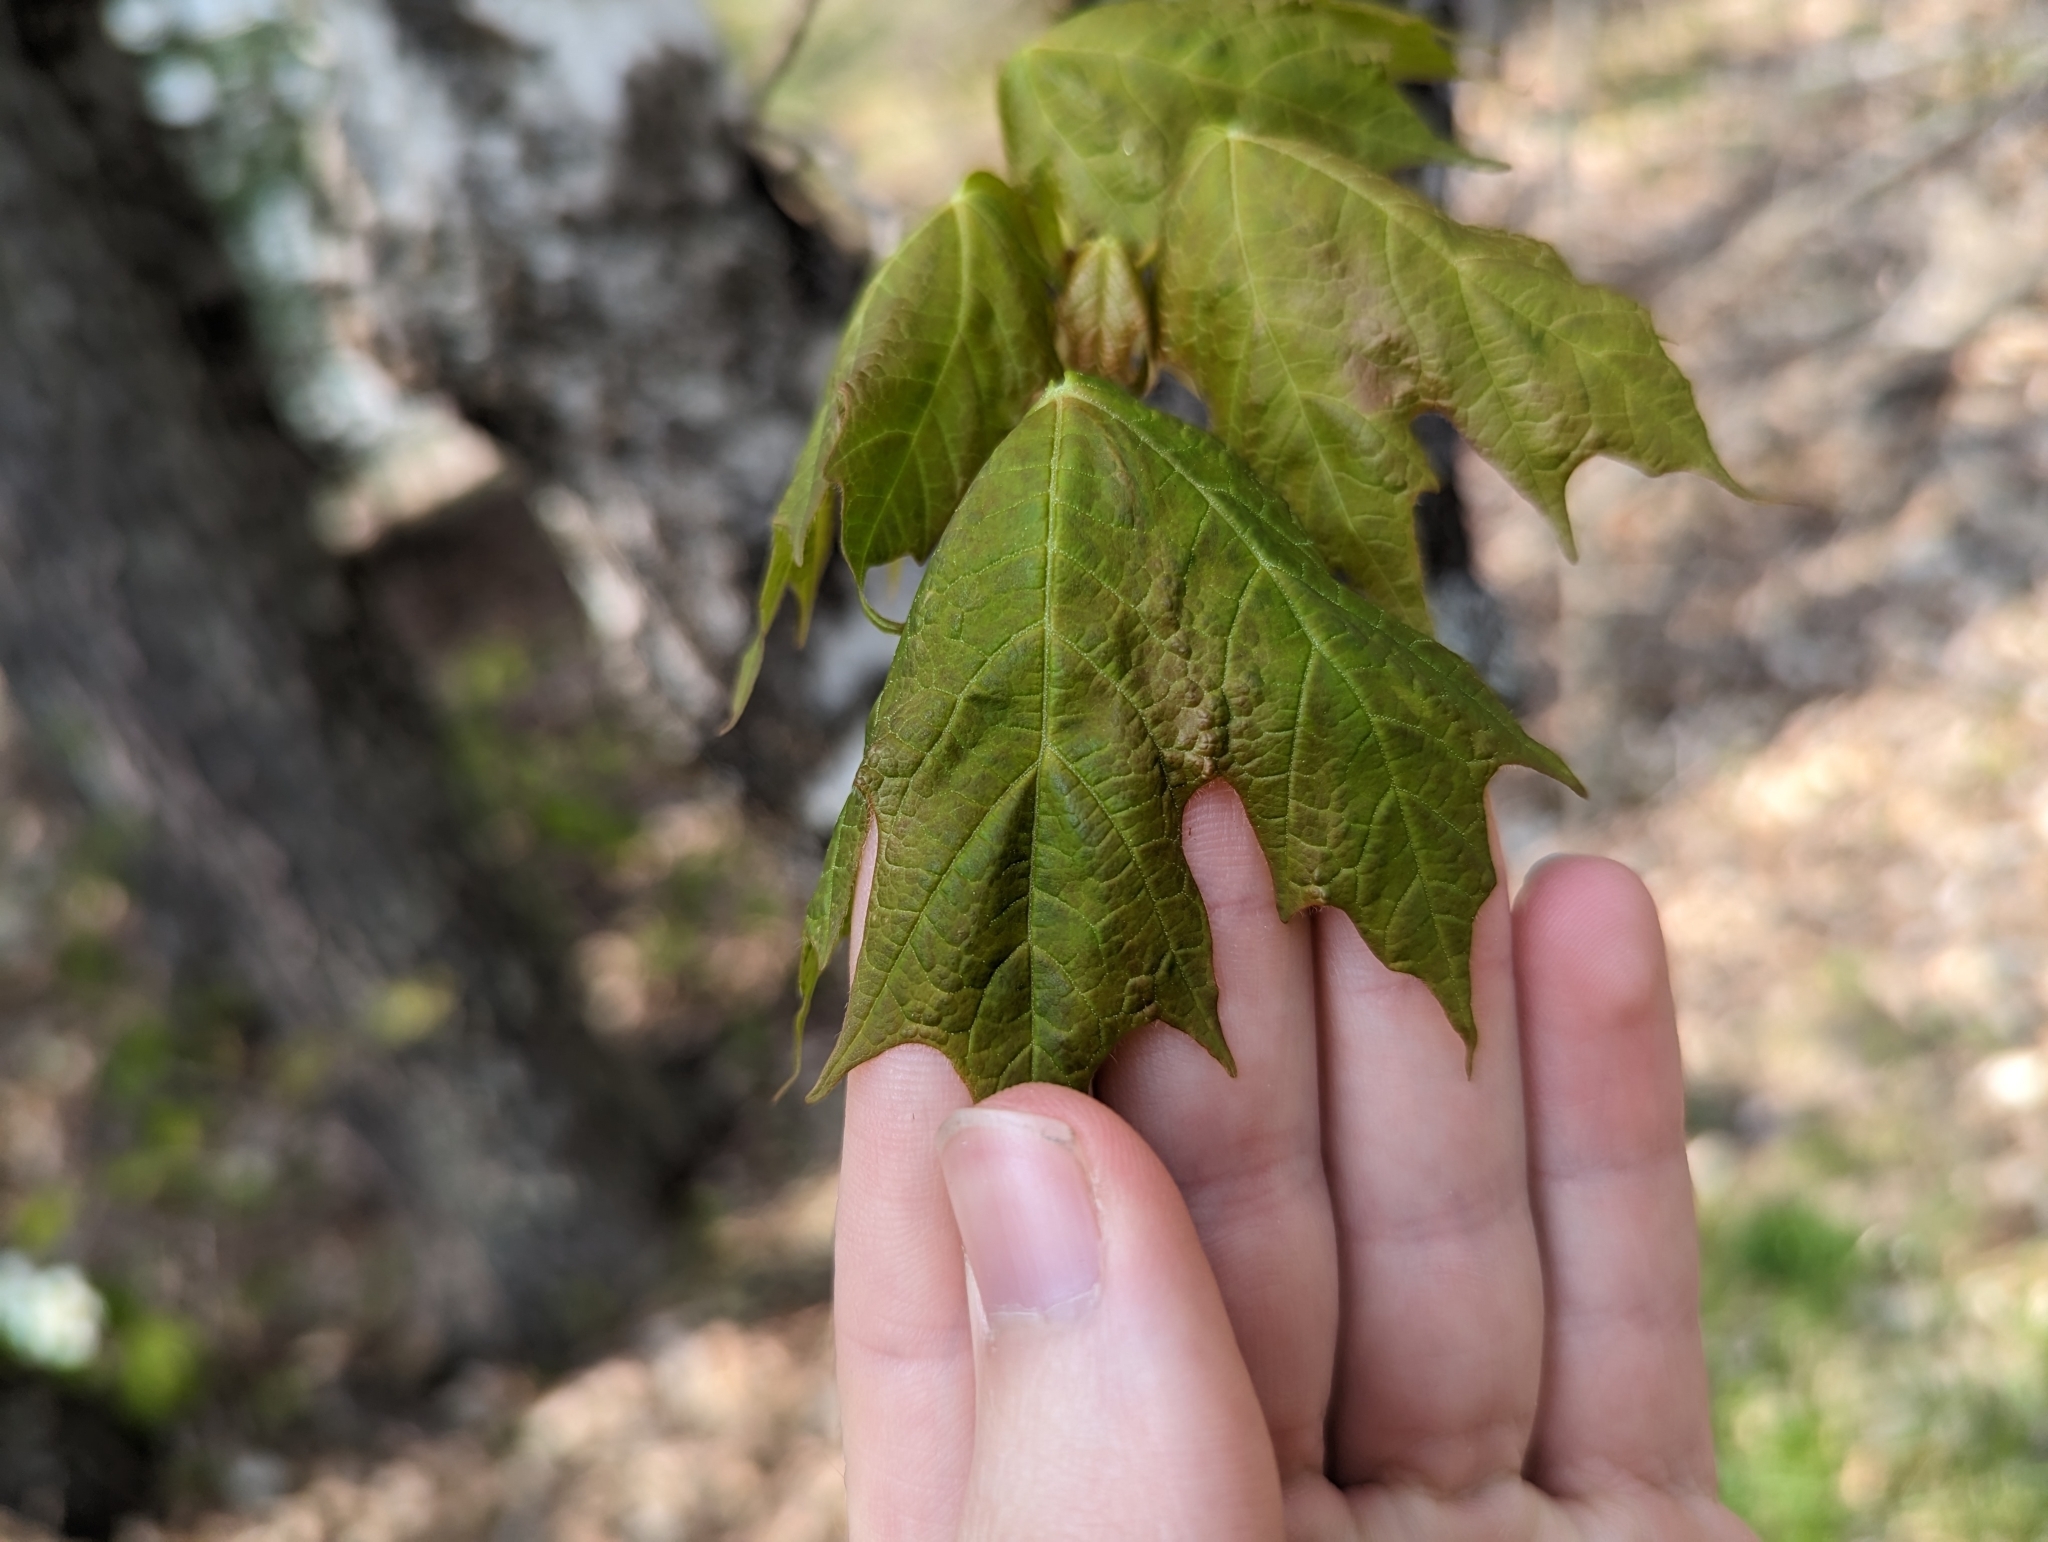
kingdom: Plantae
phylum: Tracheophyta
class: Magnoliopsida
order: Sapindales
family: Sapindaceae
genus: Acer
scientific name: Acer saccharum
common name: Sugar maple
